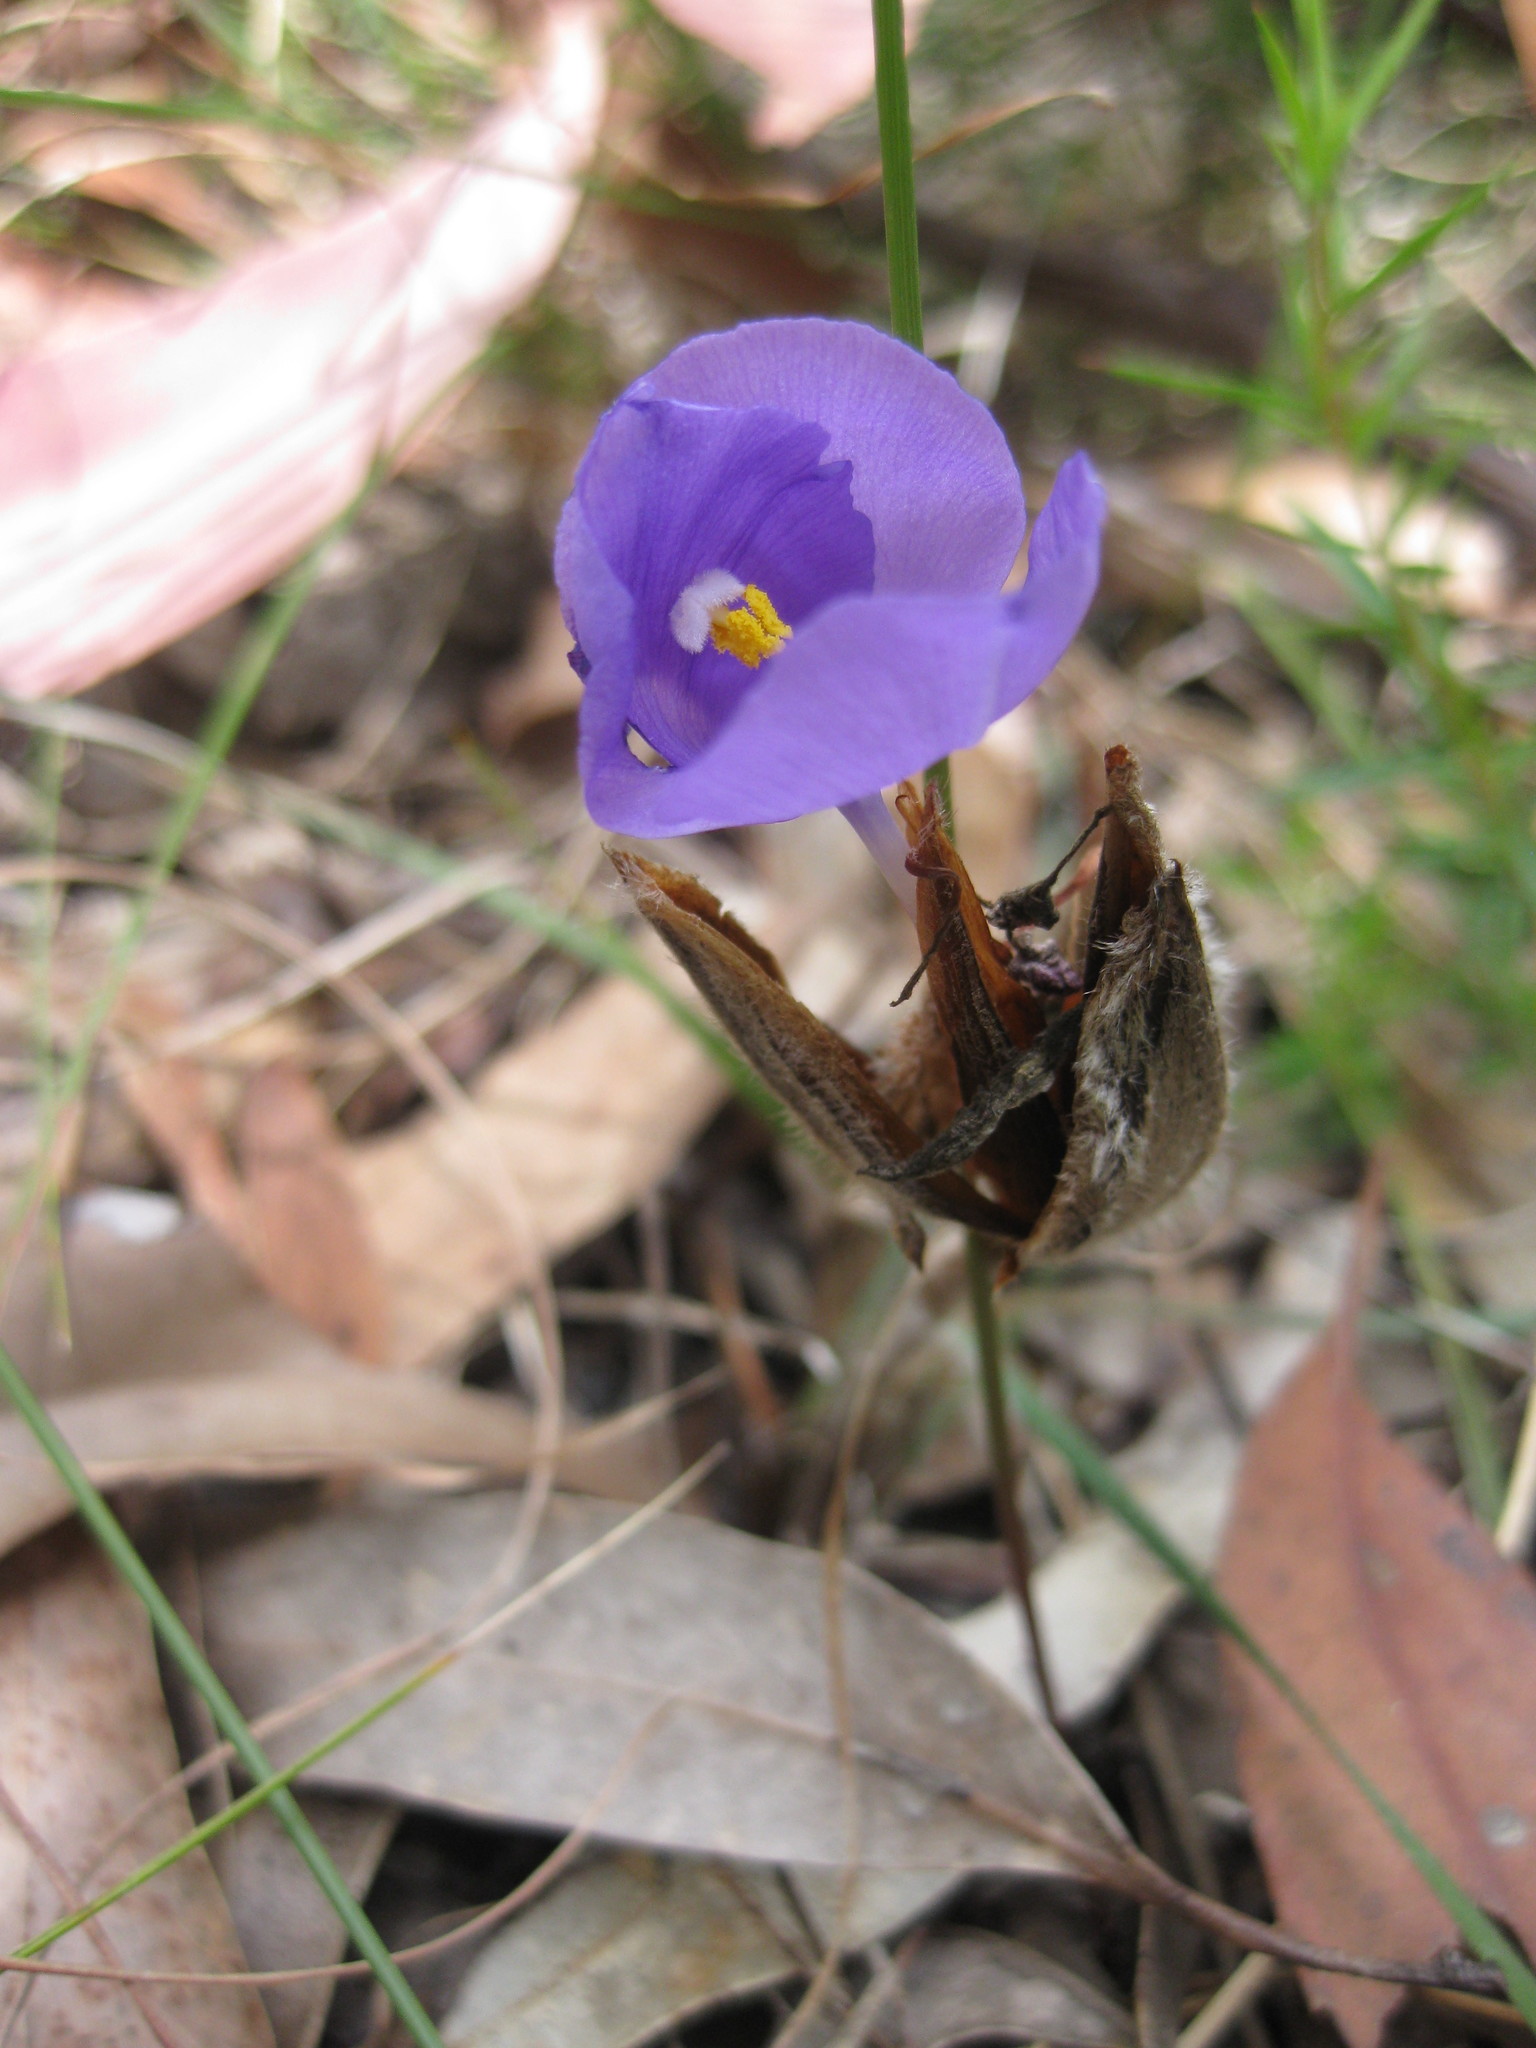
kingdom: Plantae
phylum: Tracheophyta
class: Liliopsida
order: Asparagales
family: Iridaceae
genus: Patersonia
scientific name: Patersonia sericea
